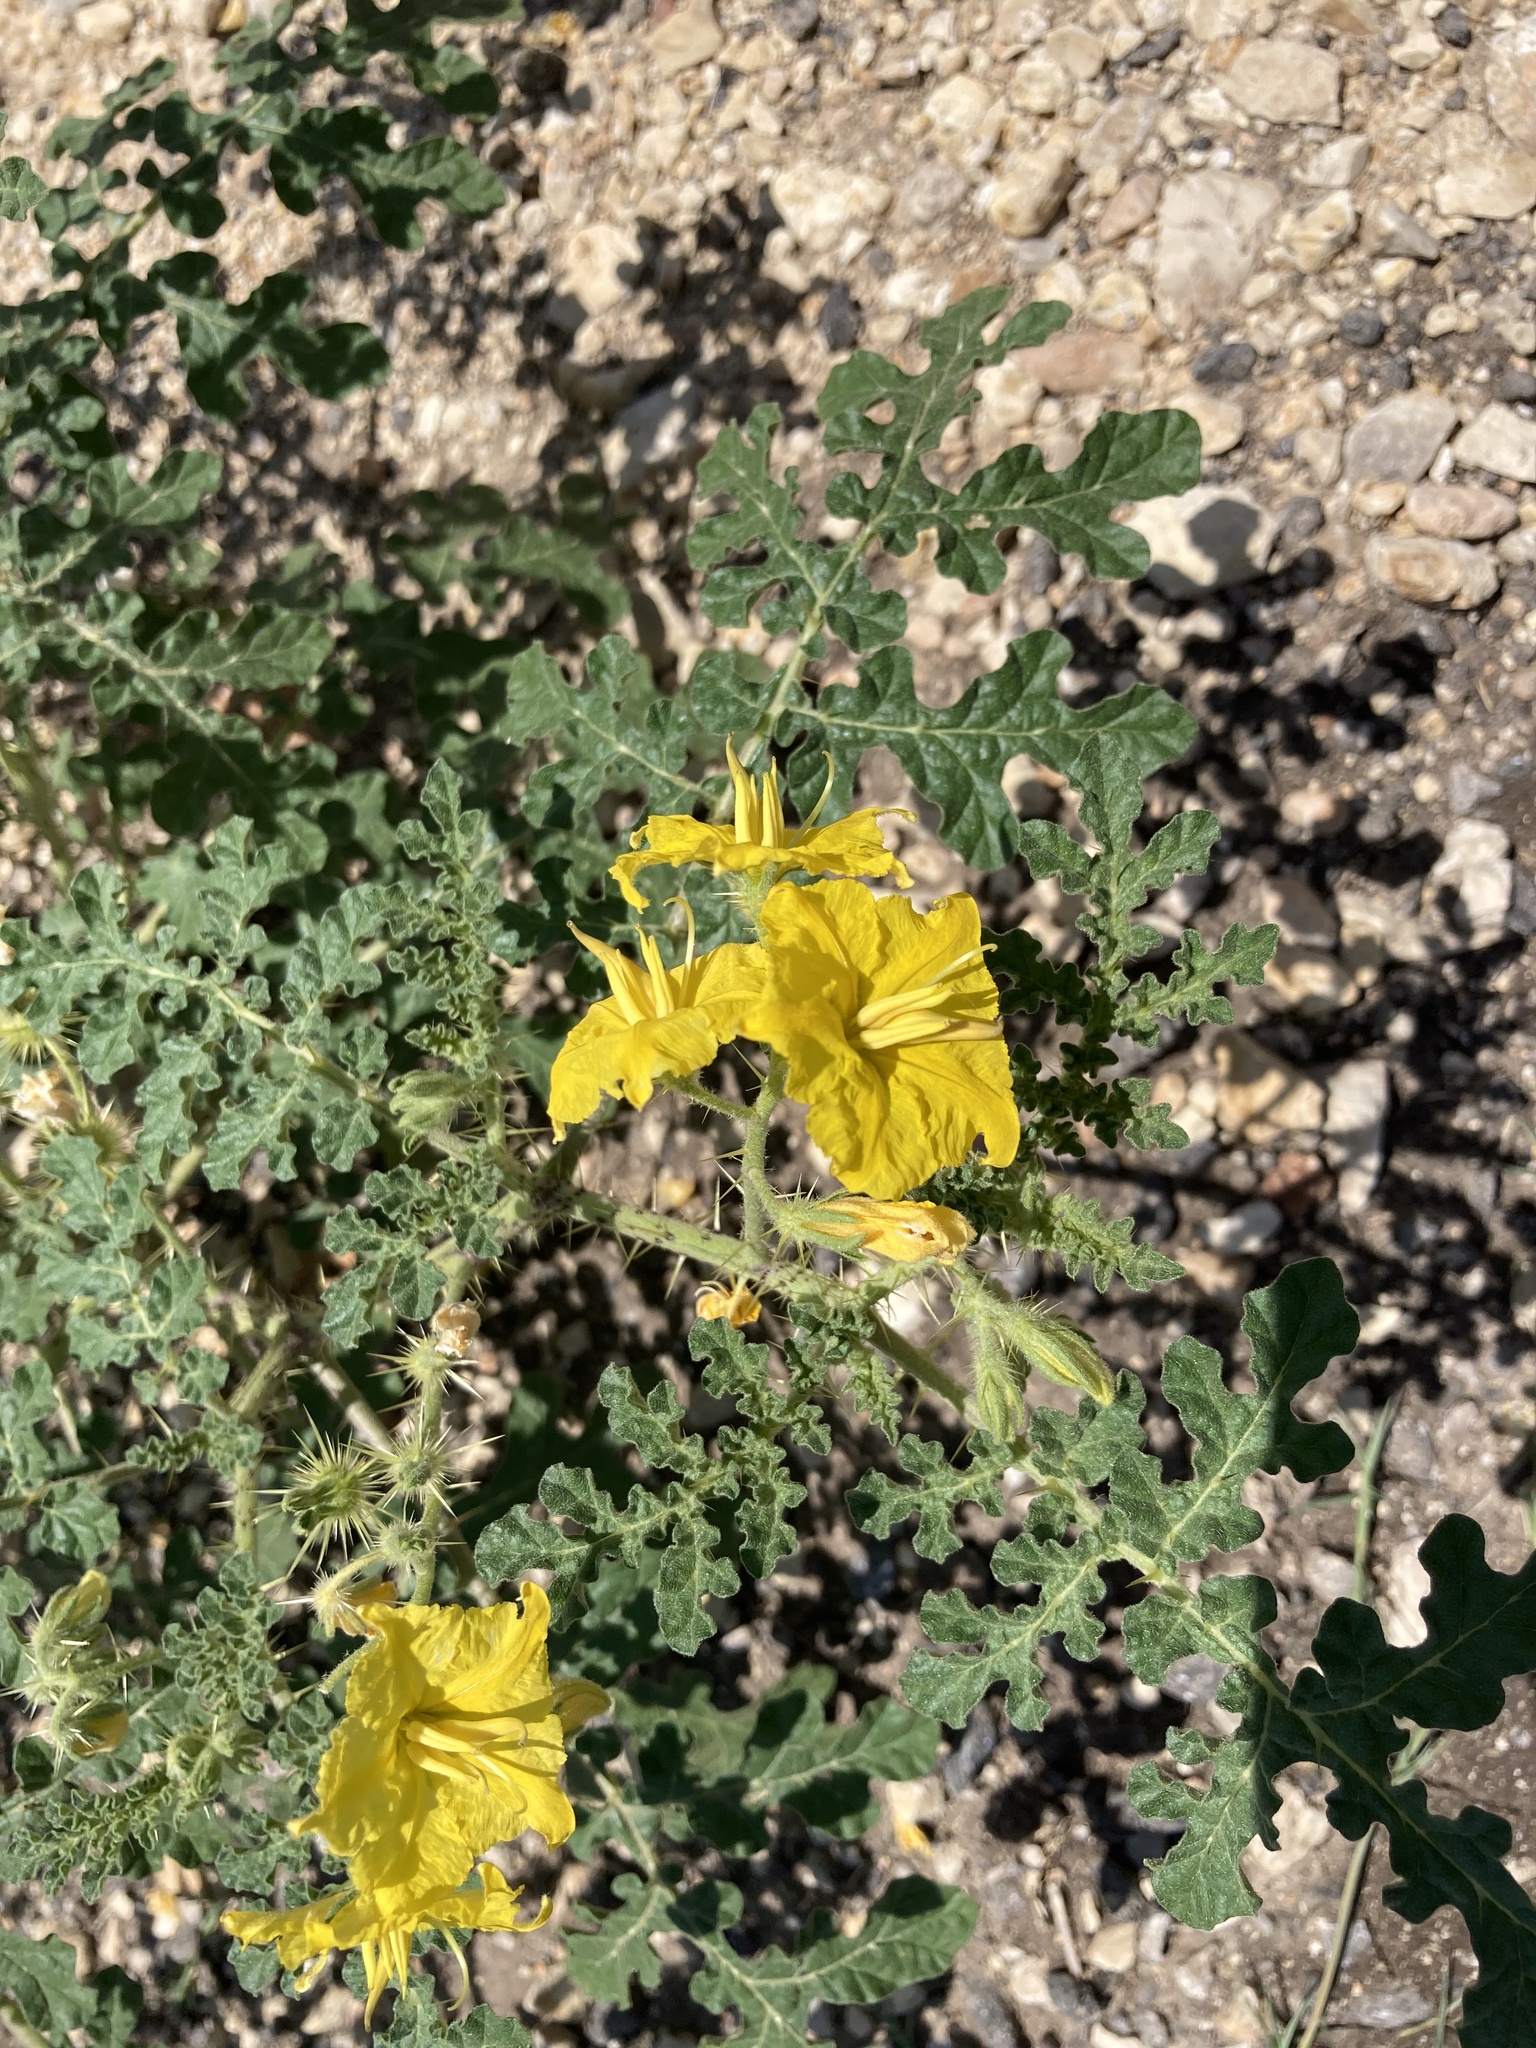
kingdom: Plantae
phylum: Tracheophyta
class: Magnoliopsida
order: Solanales
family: Solanaceae
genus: Solanum
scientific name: Solanum angustifolium
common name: Buffalobur nightshade
